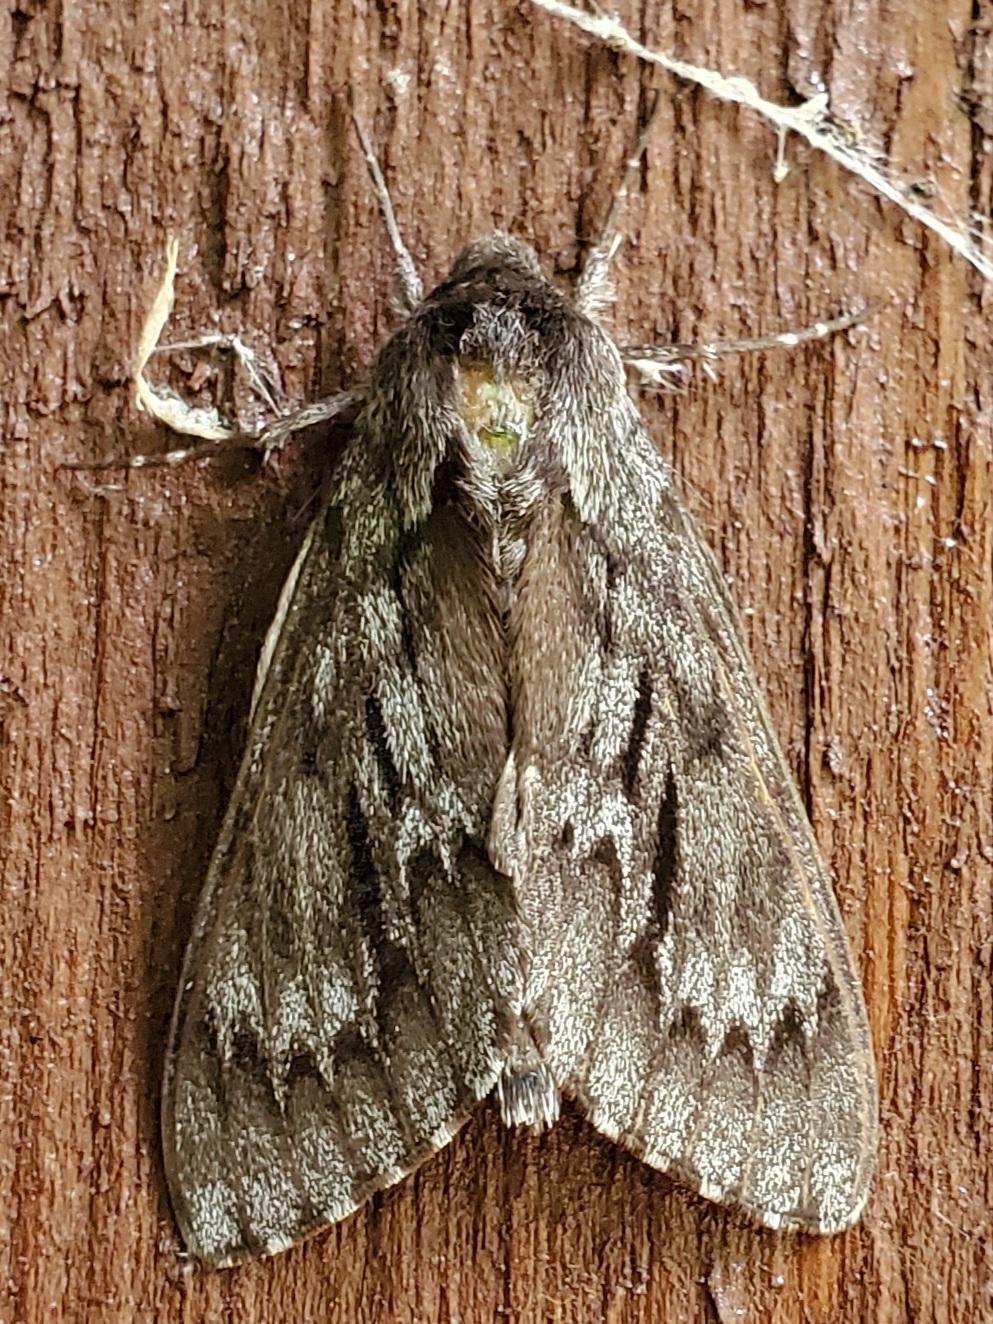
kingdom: Animalia
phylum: Arthropoda
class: Insecta
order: Lepidoptera
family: Sphingidae
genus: Lapara
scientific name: Lapara coniferarum
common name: Southern pine sphinx
